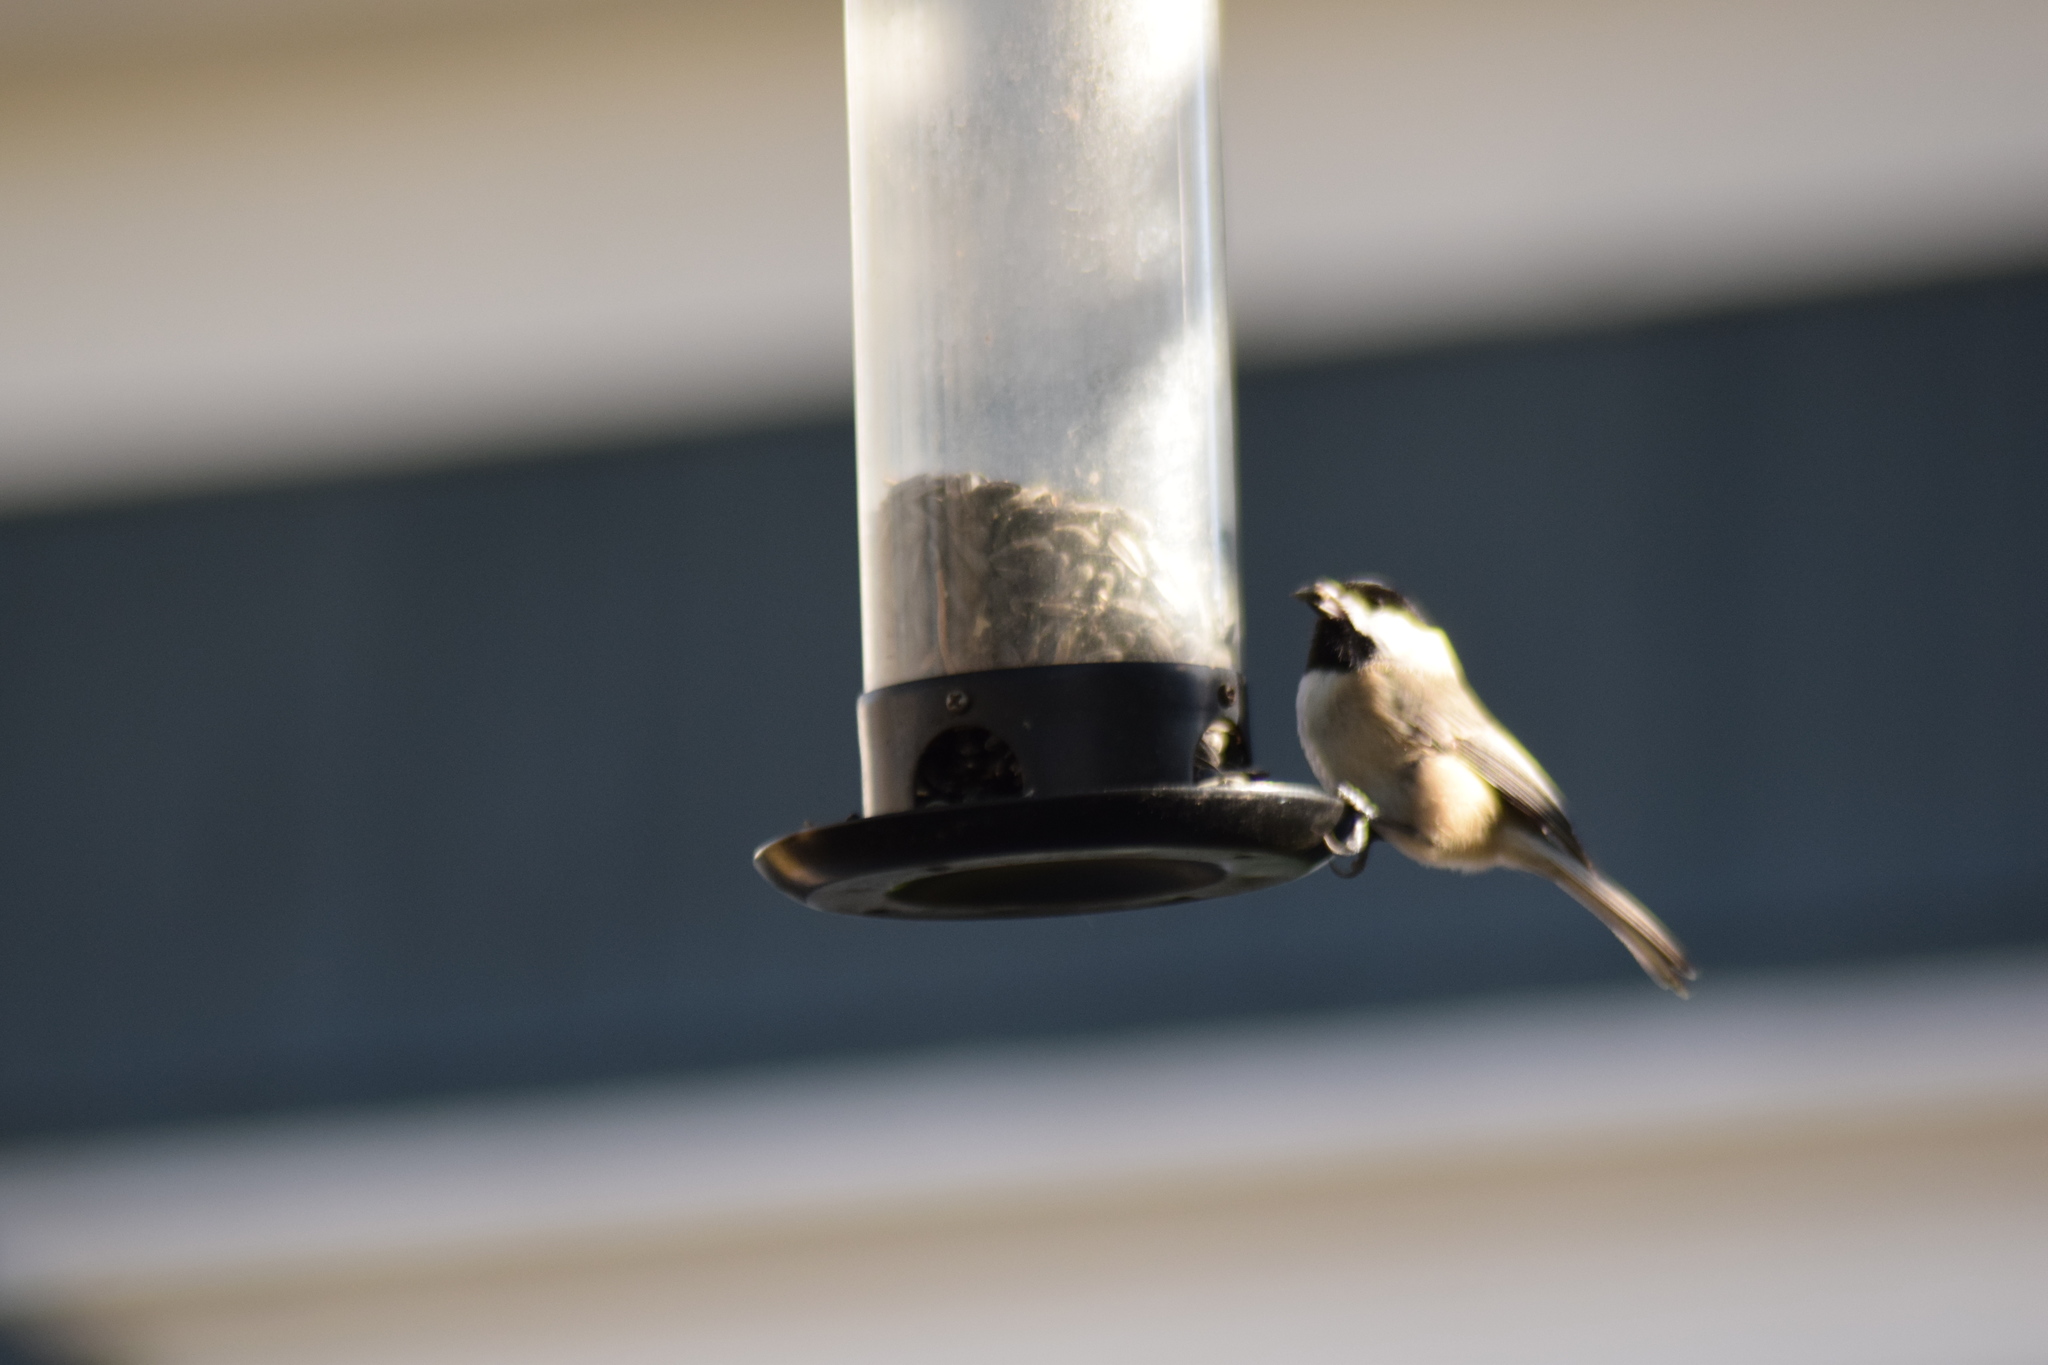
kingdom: Animalia
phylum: Chordata
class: Aves
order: Passeriformes
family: Paridae
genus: Poecile
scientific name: Poecile carolinensis
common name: Carolina chickadee
